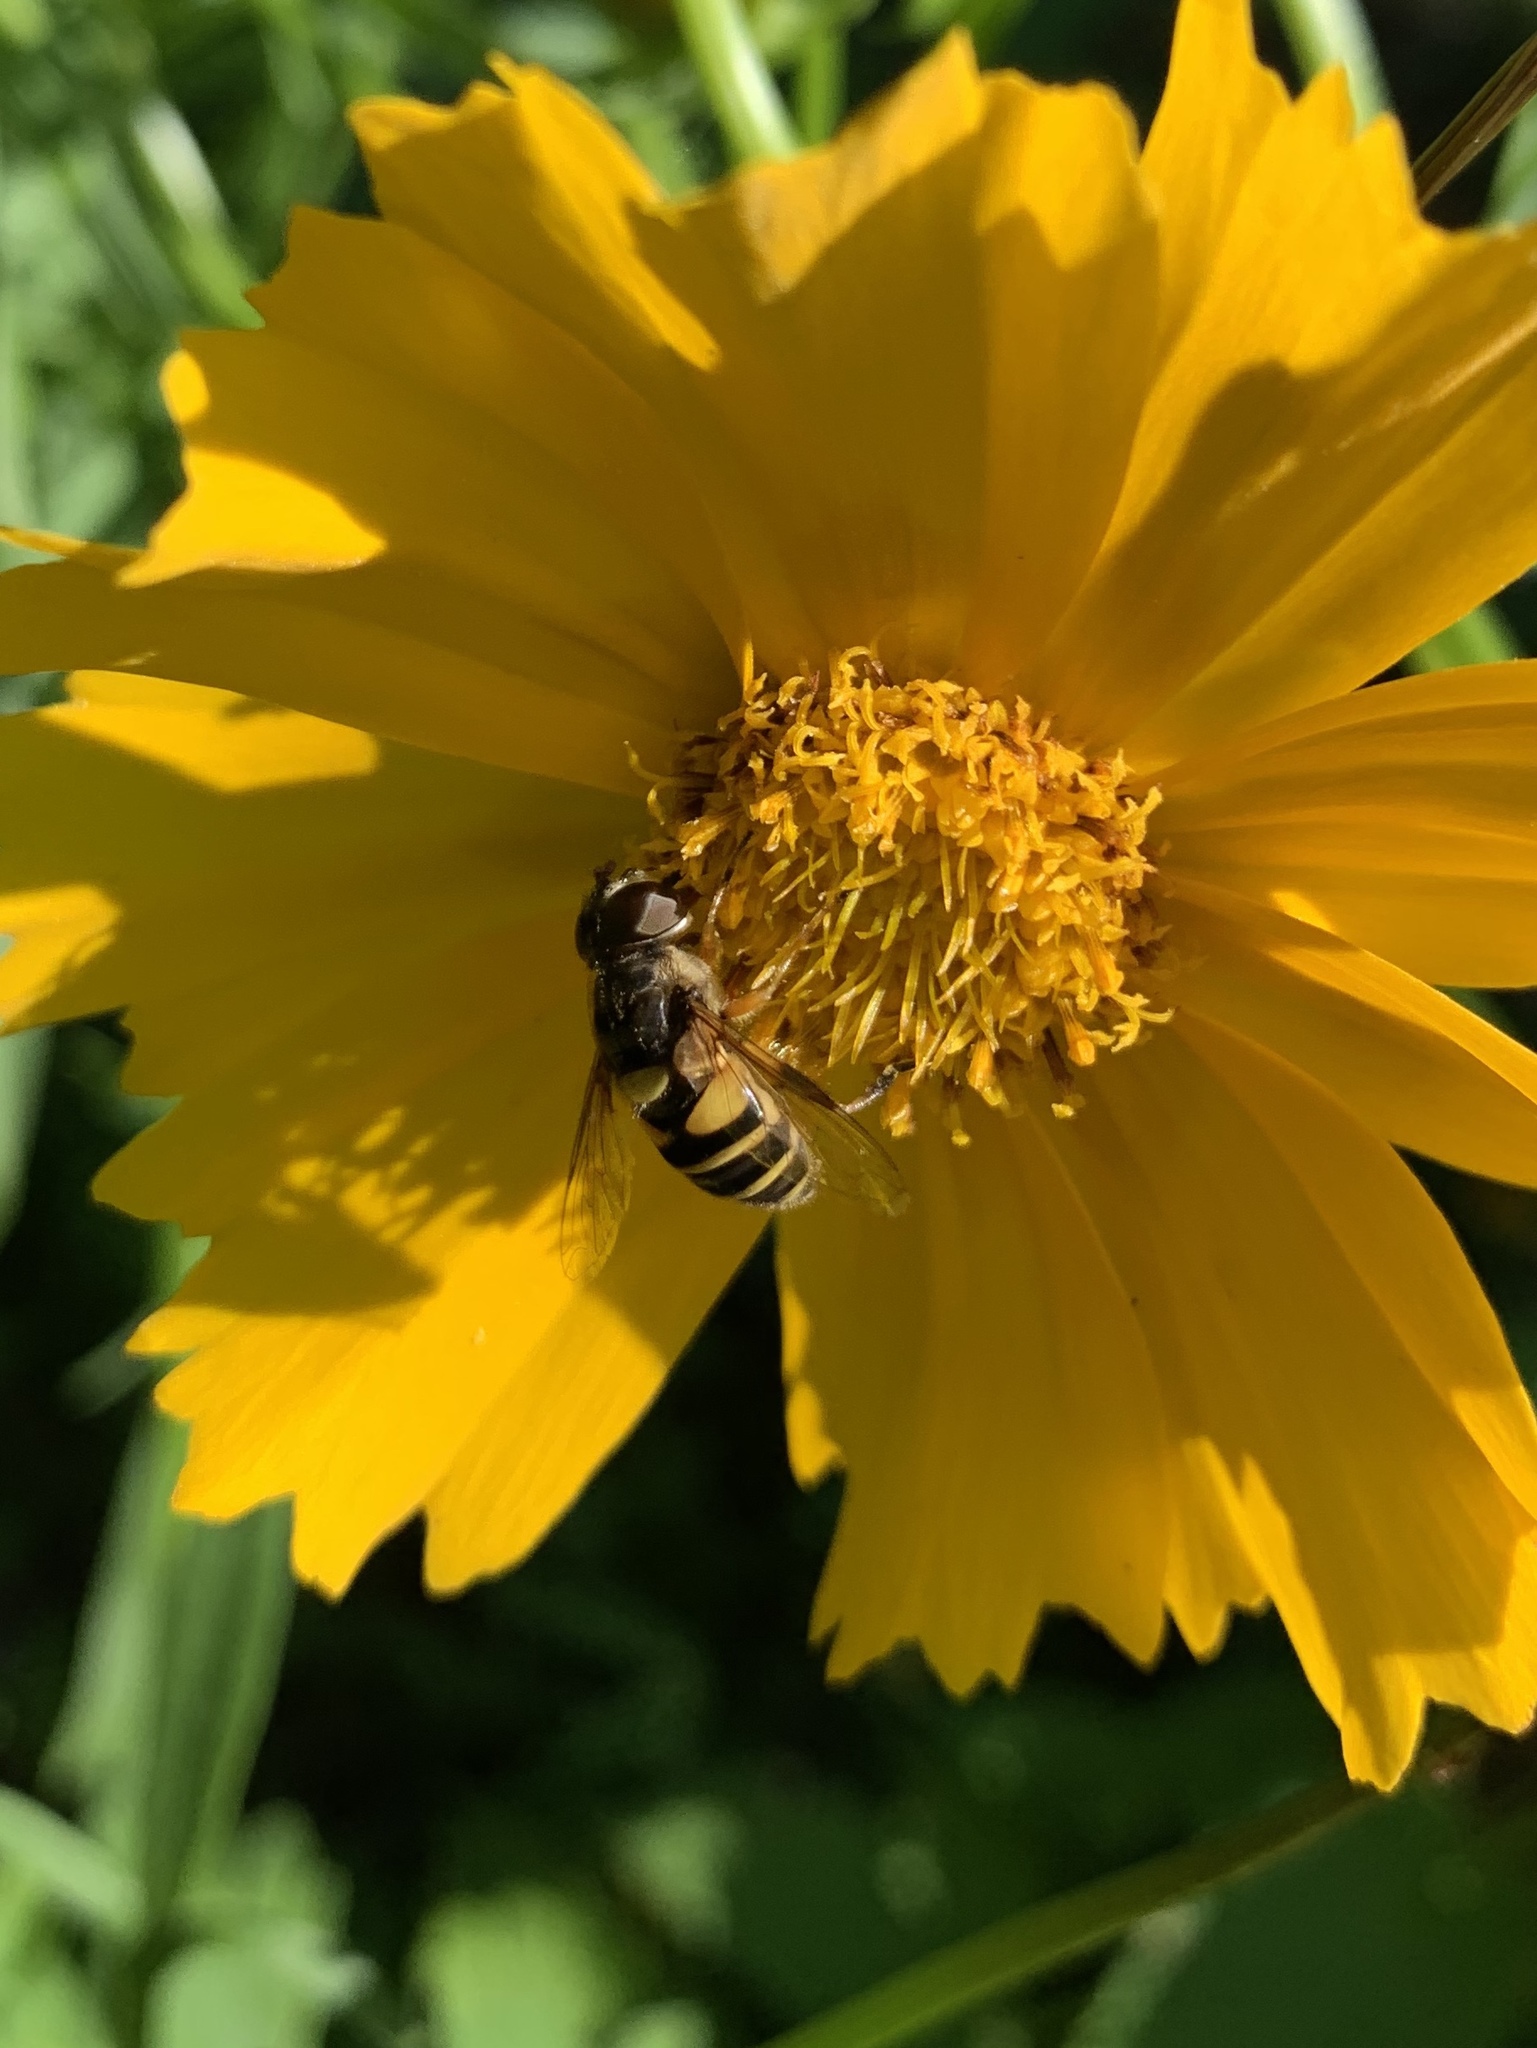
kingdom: Animalia
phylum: Arthropoda
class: Insecta
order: Diptera
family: Syrphidae
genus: Eristalis
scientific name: Eristalis transversa
